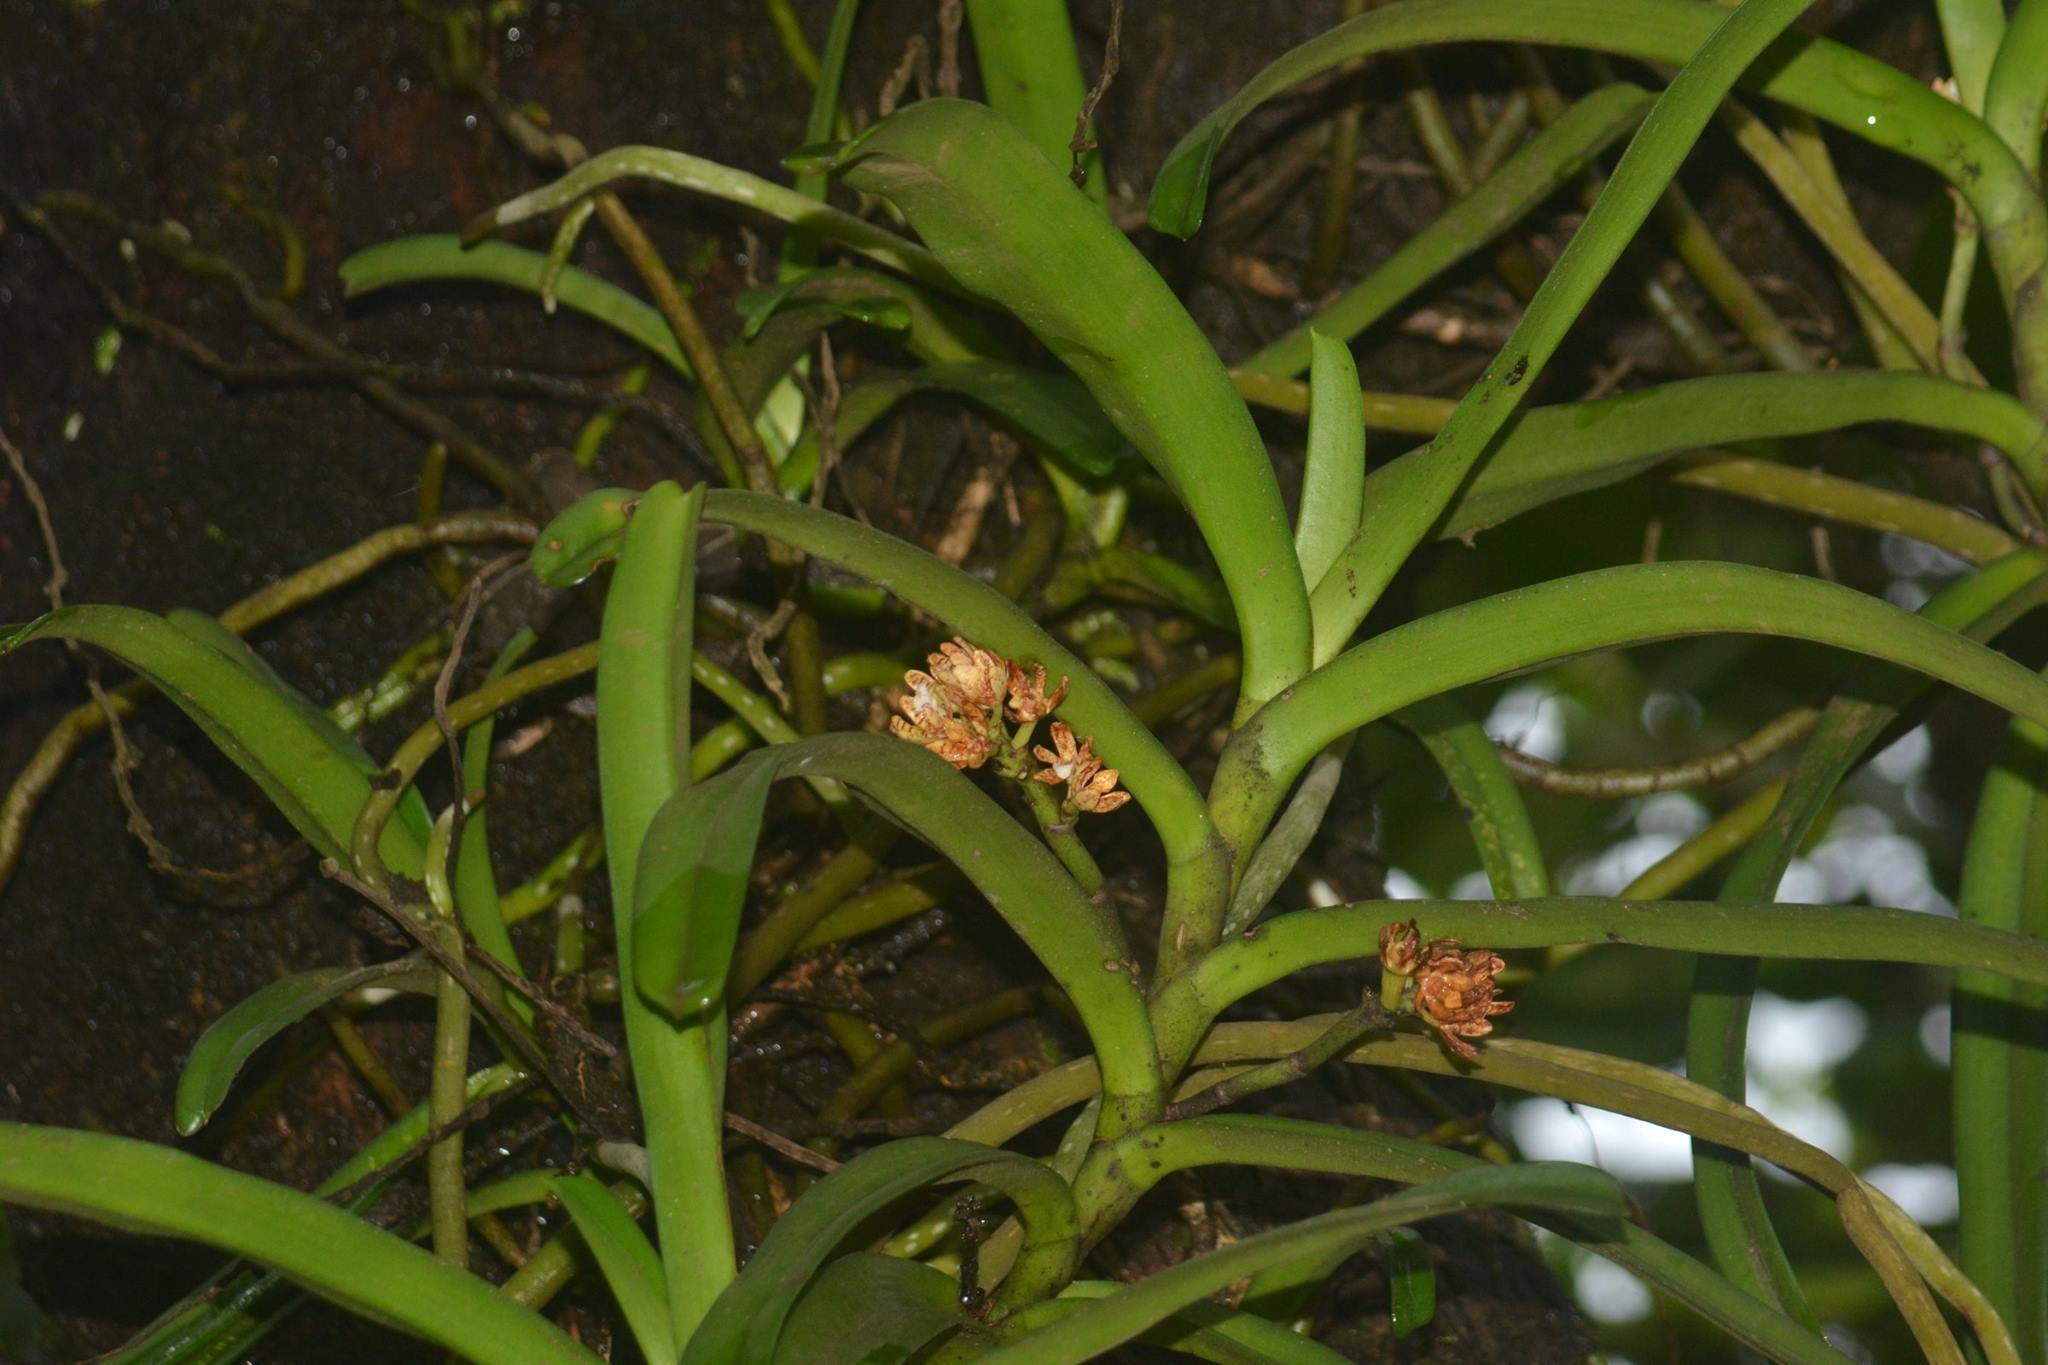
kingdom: Plantae
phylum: Tracheophyta
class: Liliopsida
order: Asparagales
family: Orchidaceae
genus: Acampe
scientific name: Acampe praemorsa
